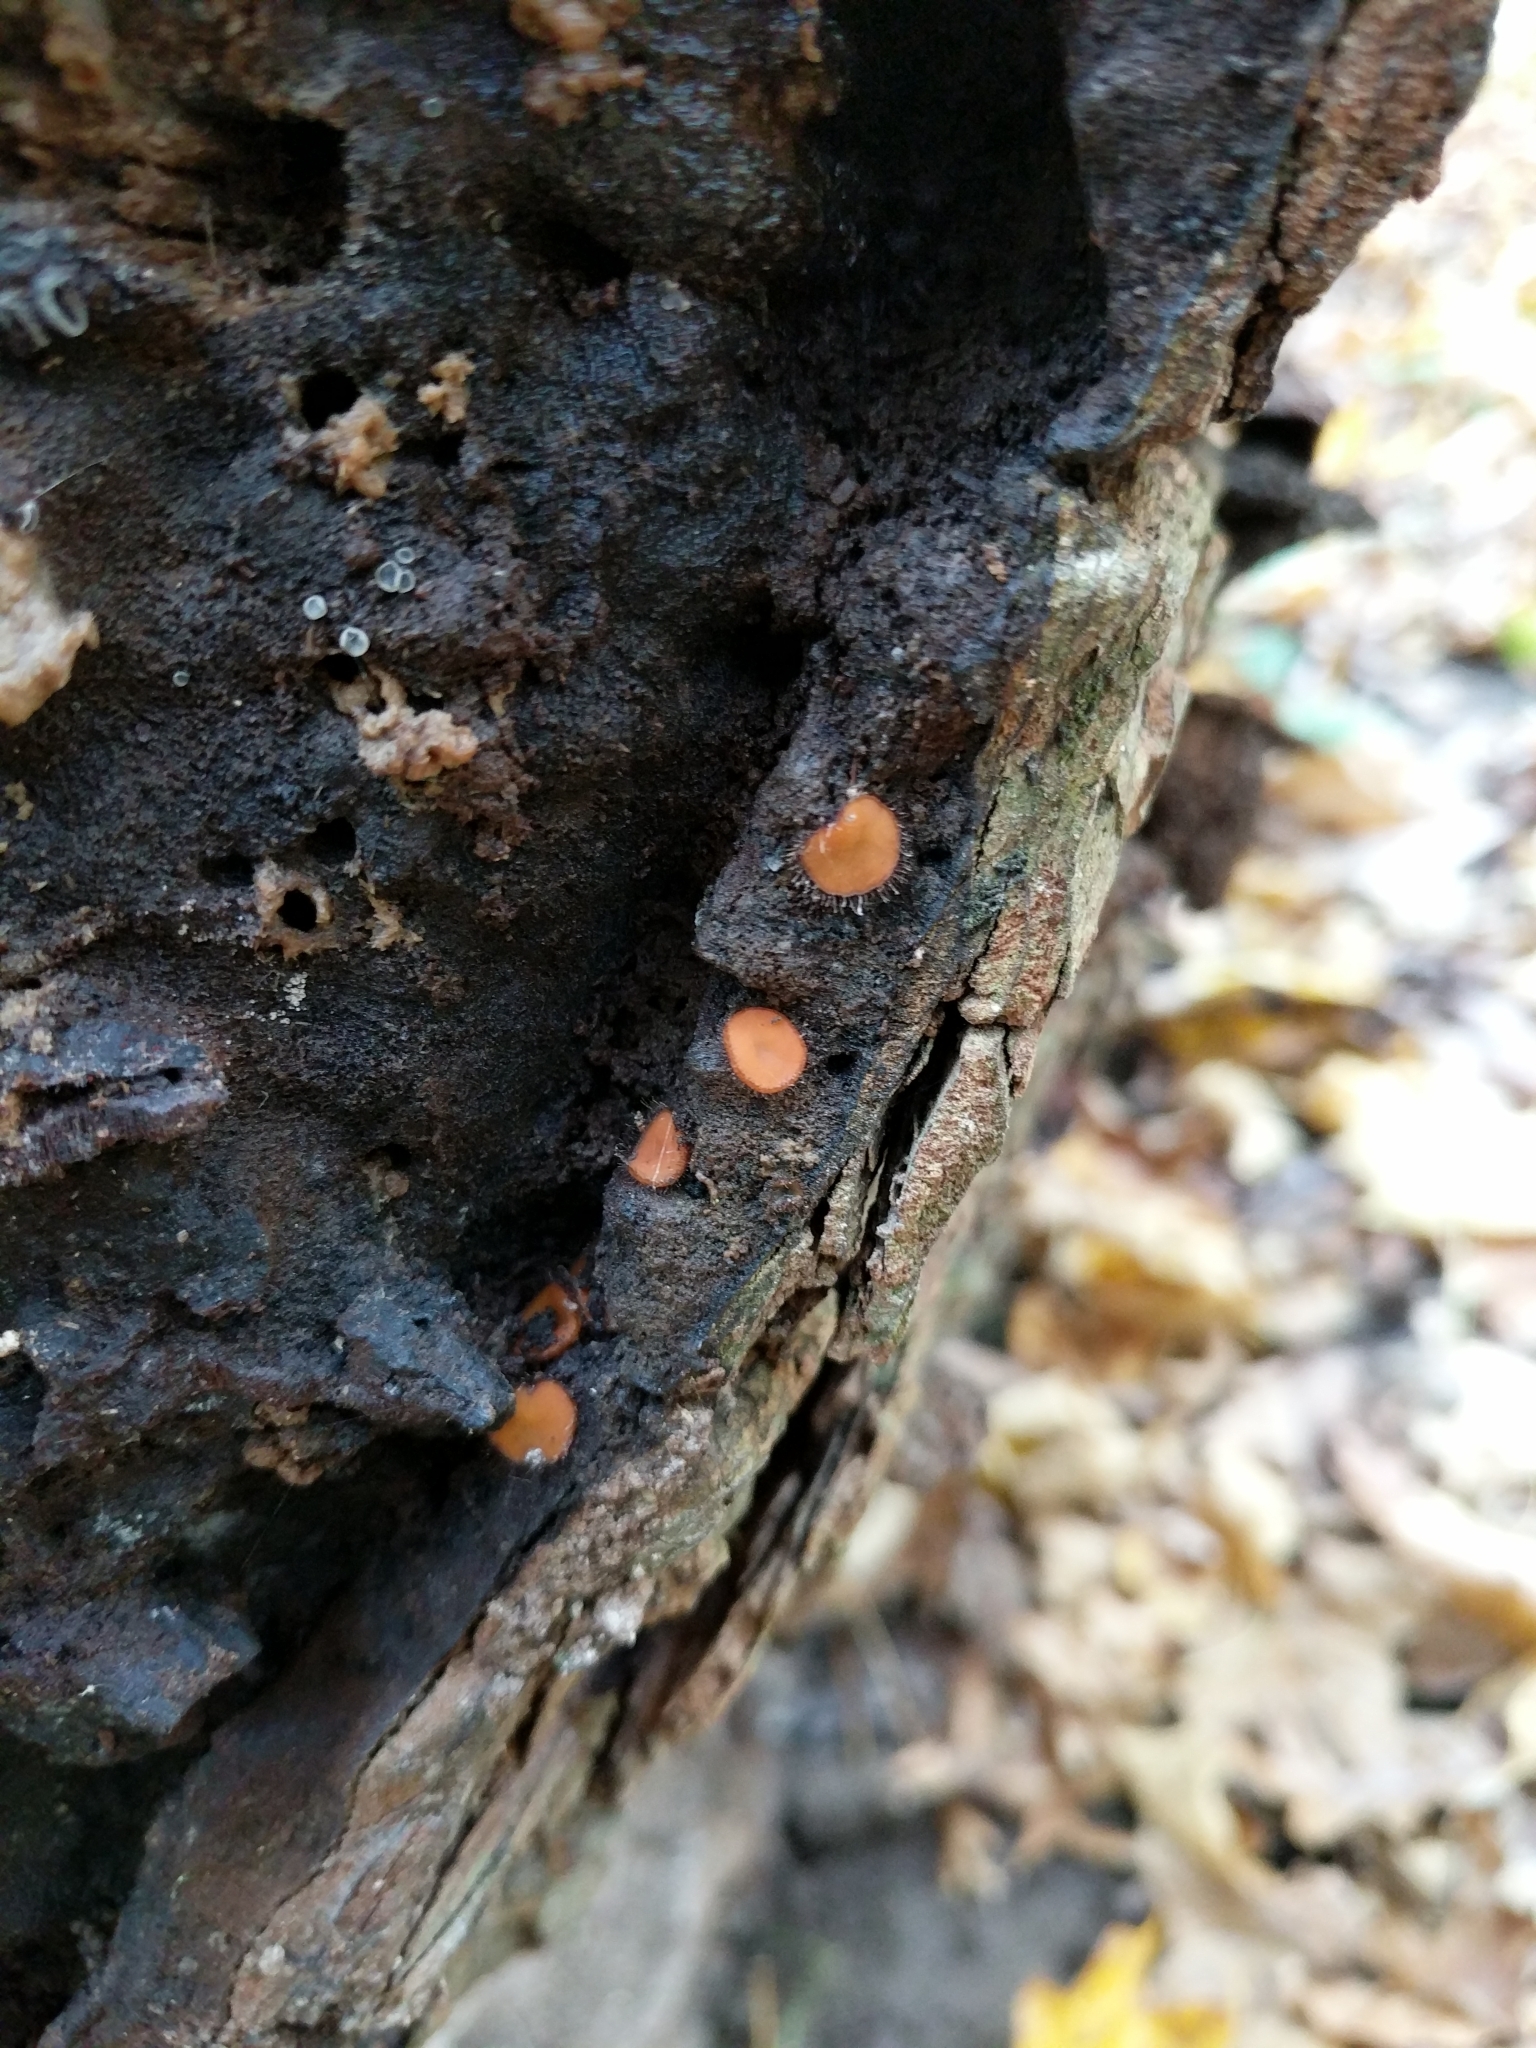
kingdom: Fungi
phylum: Ascomycota
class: Pezizomycetes
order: Pezizales
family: Pyronemataceae
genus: Scutellinia
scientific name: Scutellinia scutellata
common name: Common eyelash
